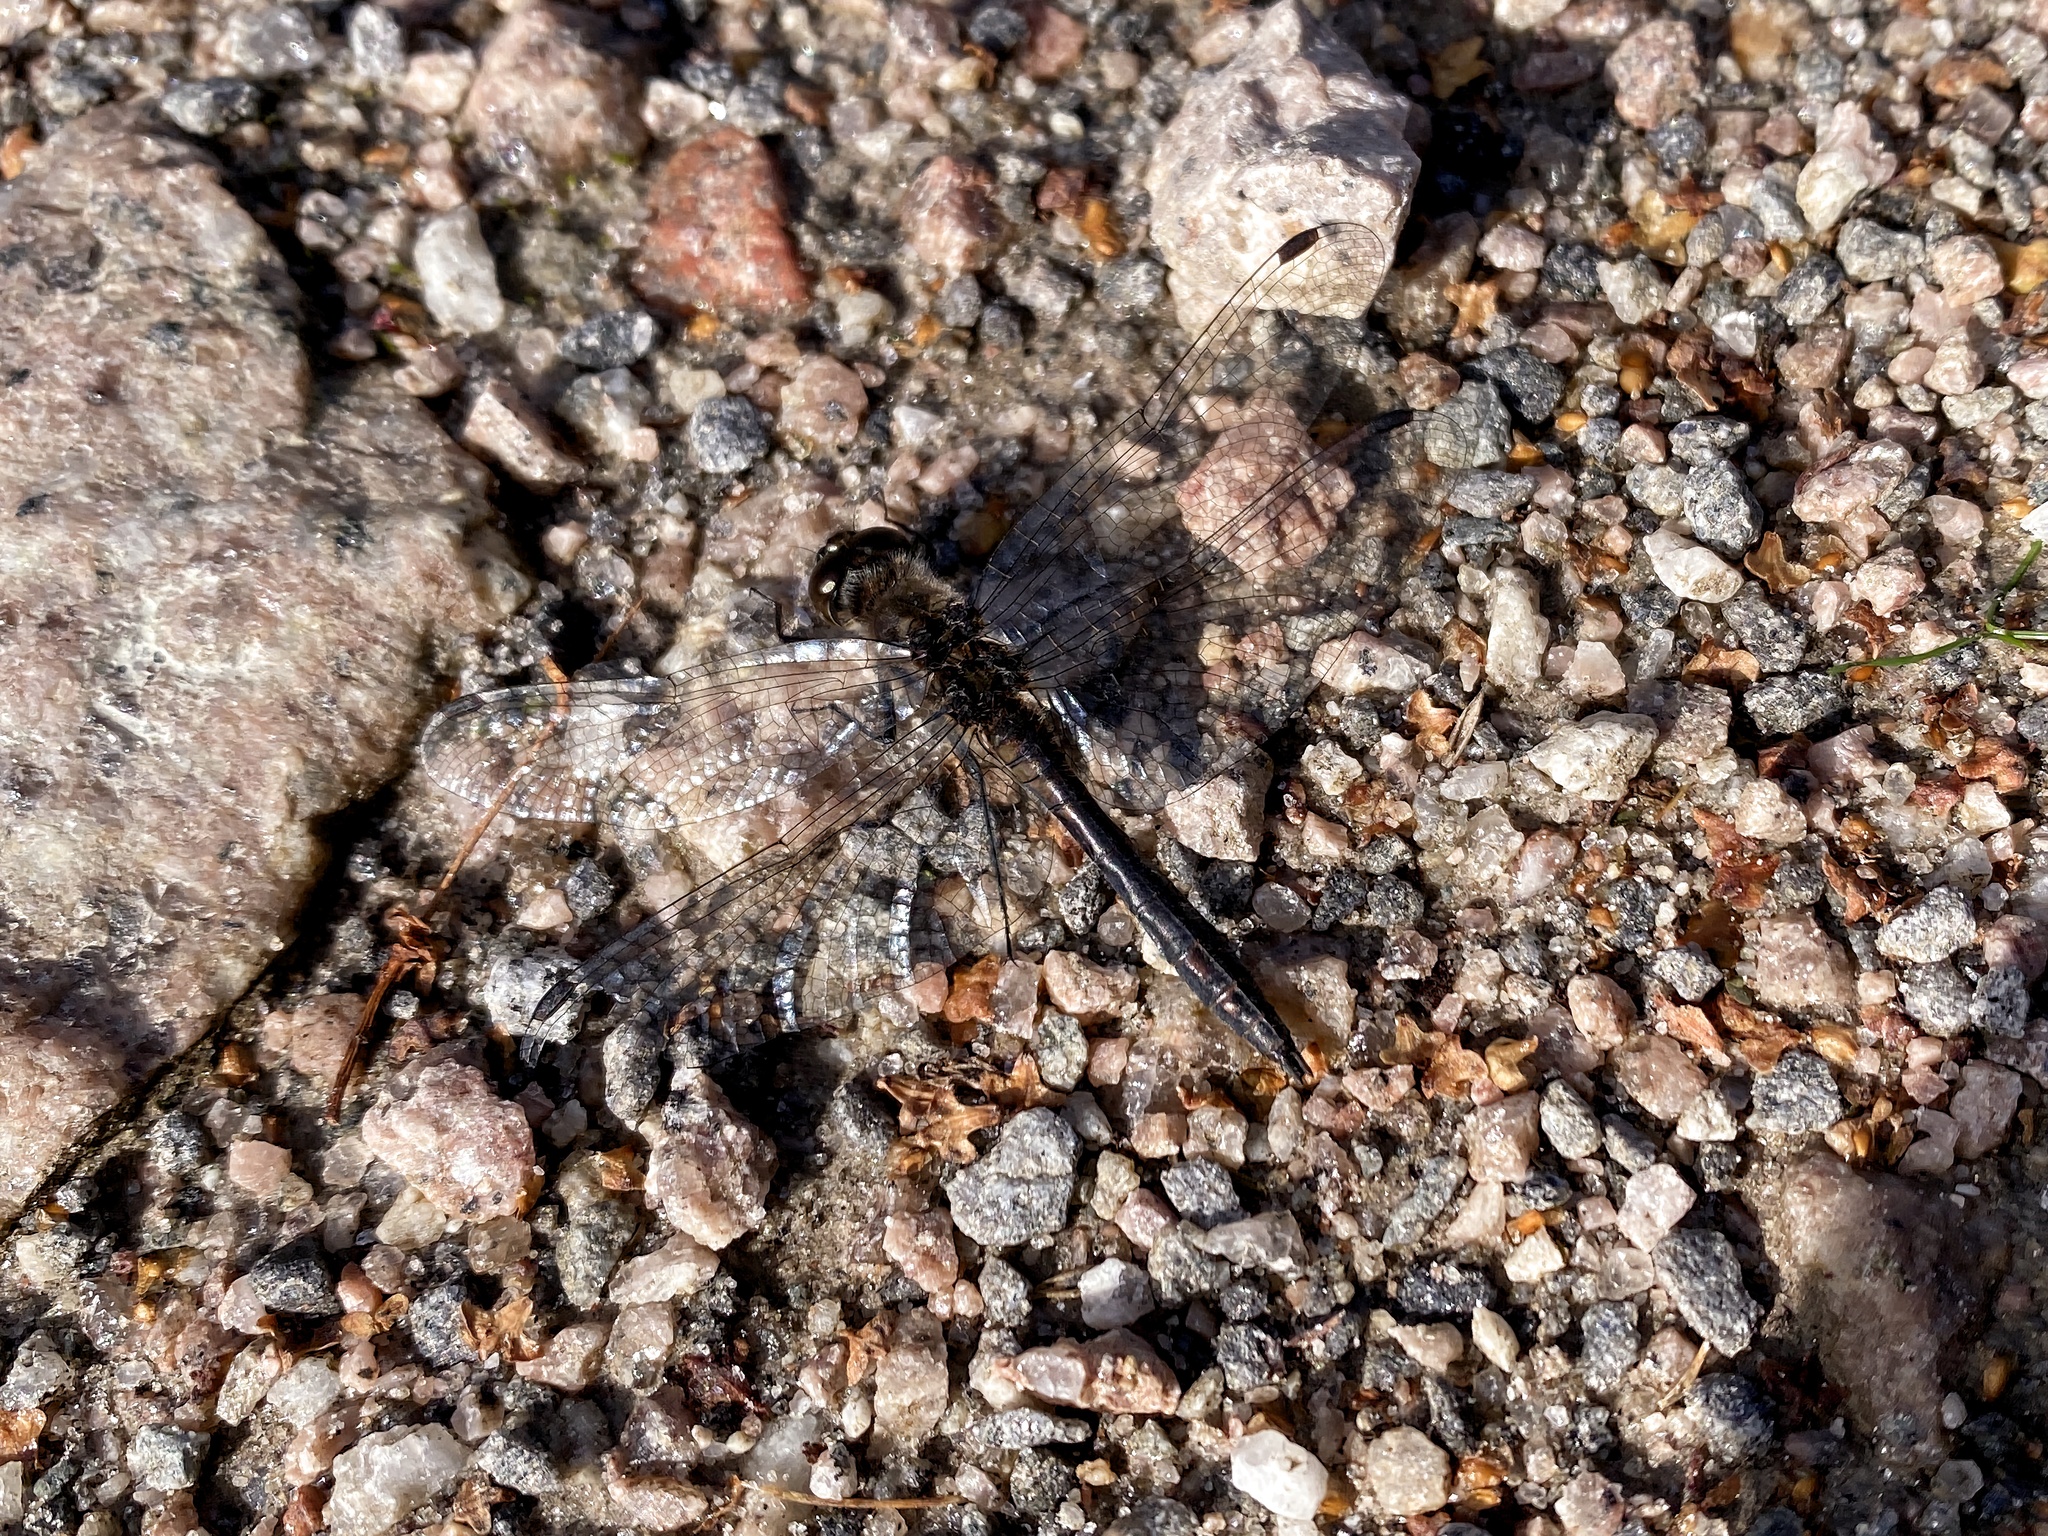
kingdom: Animalia
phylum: Arthropoda
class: Insecta
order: Odonata
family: Libellulidae
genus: Sympetrum
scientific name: Sympetrum danae
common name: Black darter
